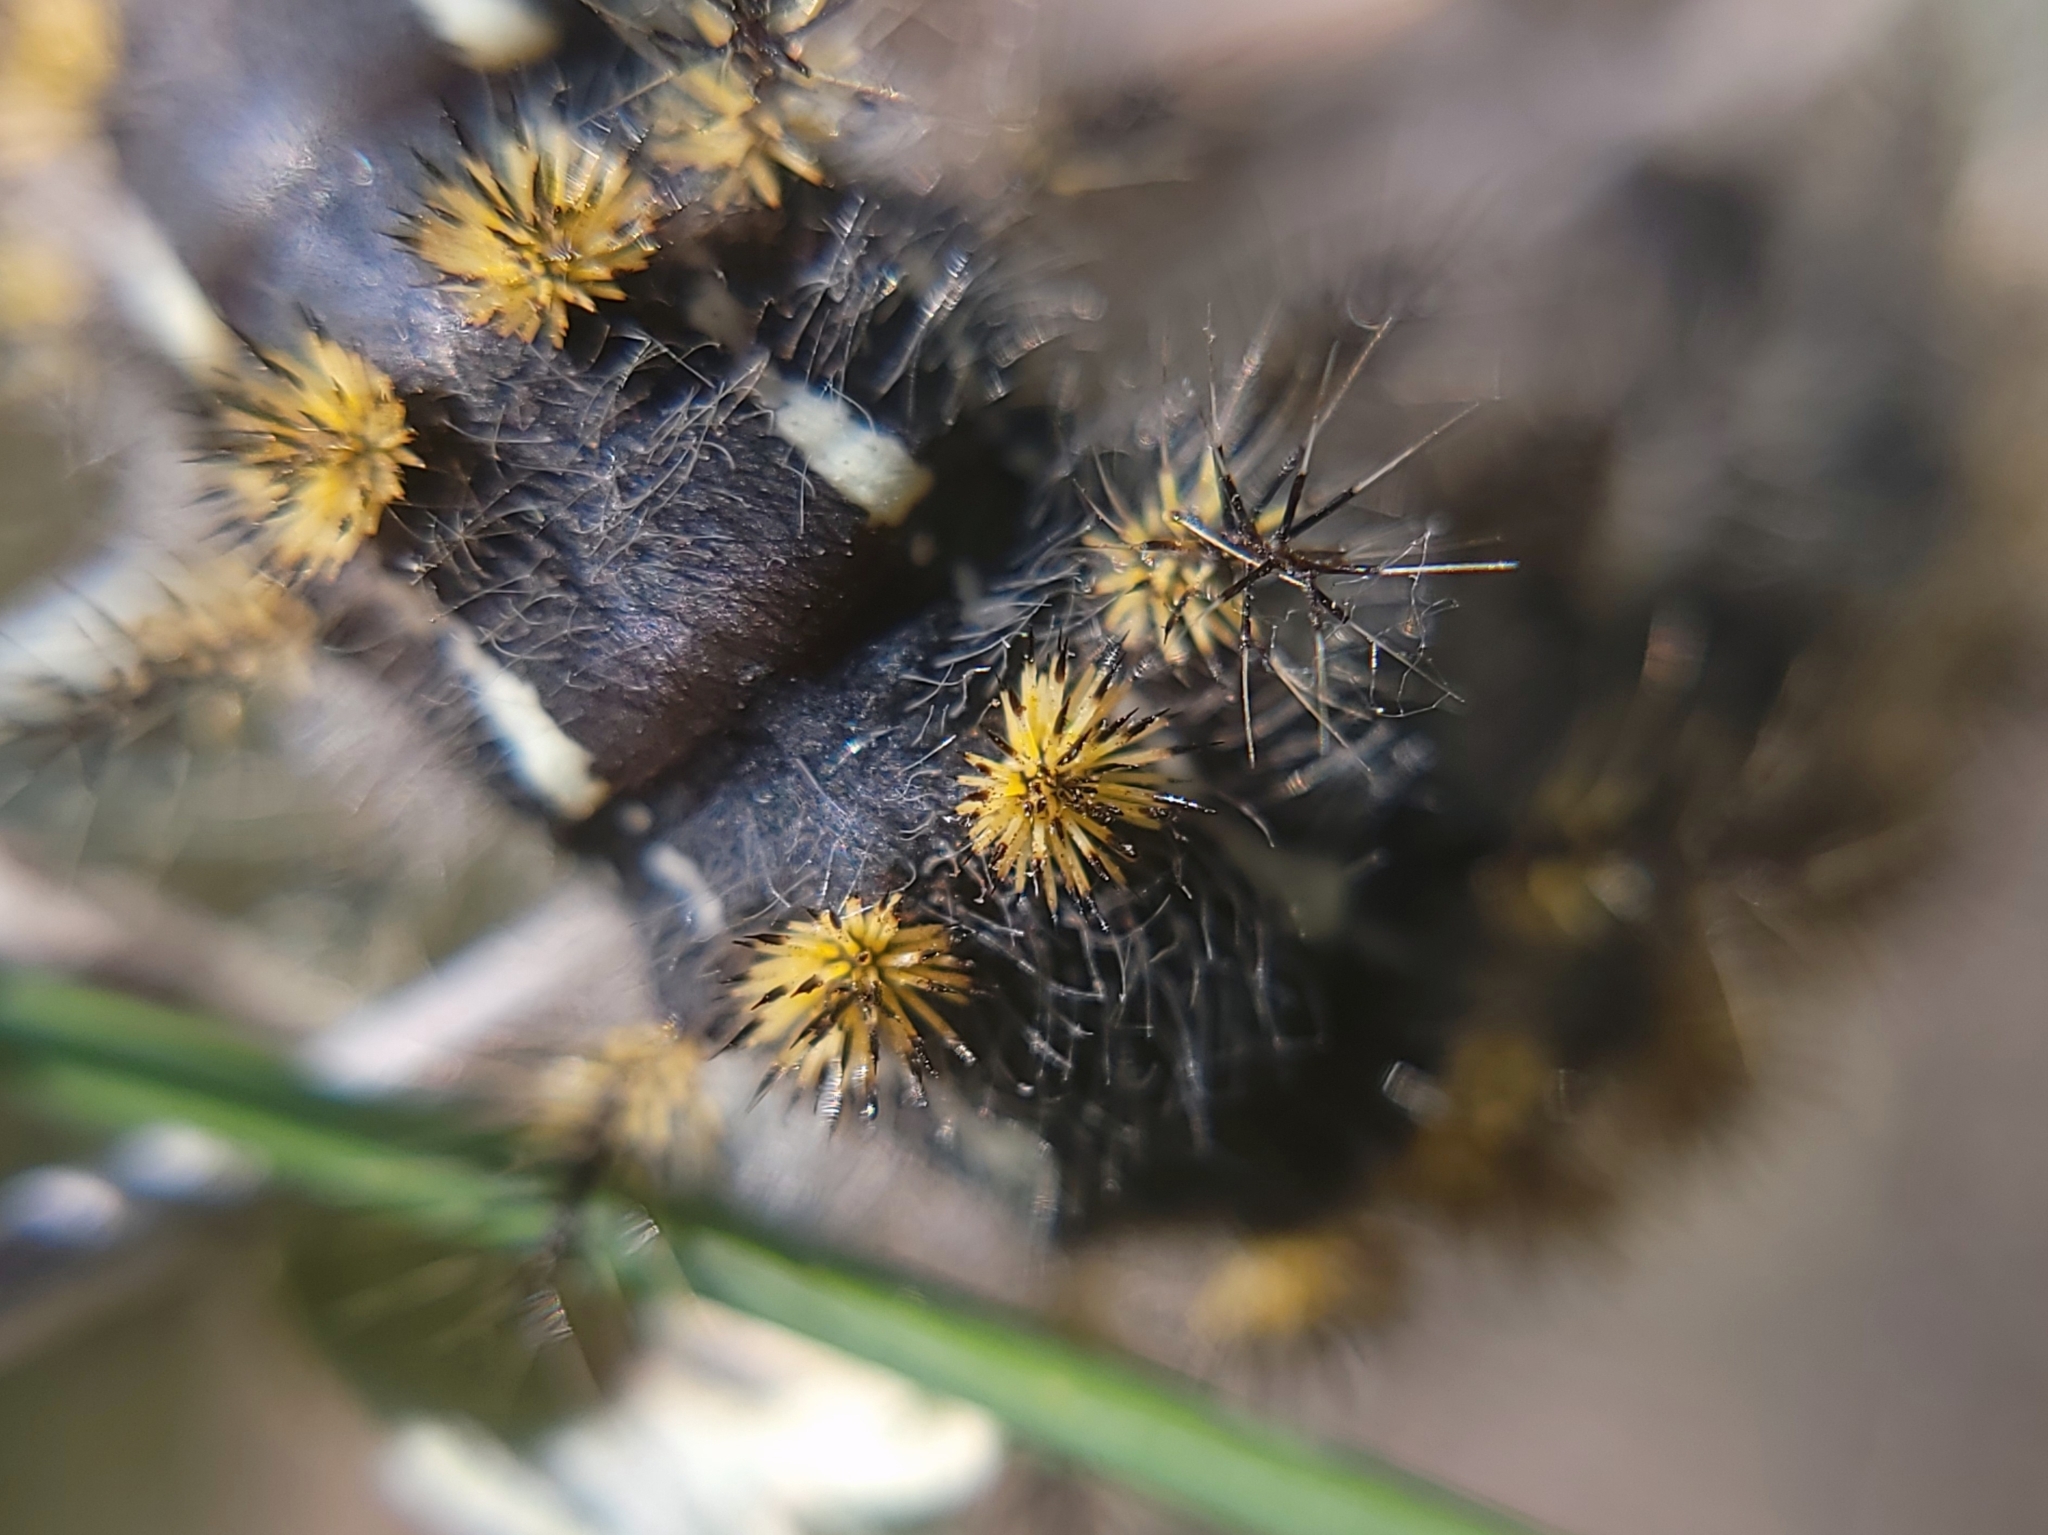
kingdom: Animalia
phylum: Arthropoda
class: Insecta
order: Lepidoptera
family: Saturniidae
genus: Hemileuca
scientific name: Hemileuca hera
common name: Hera sheepmoth
